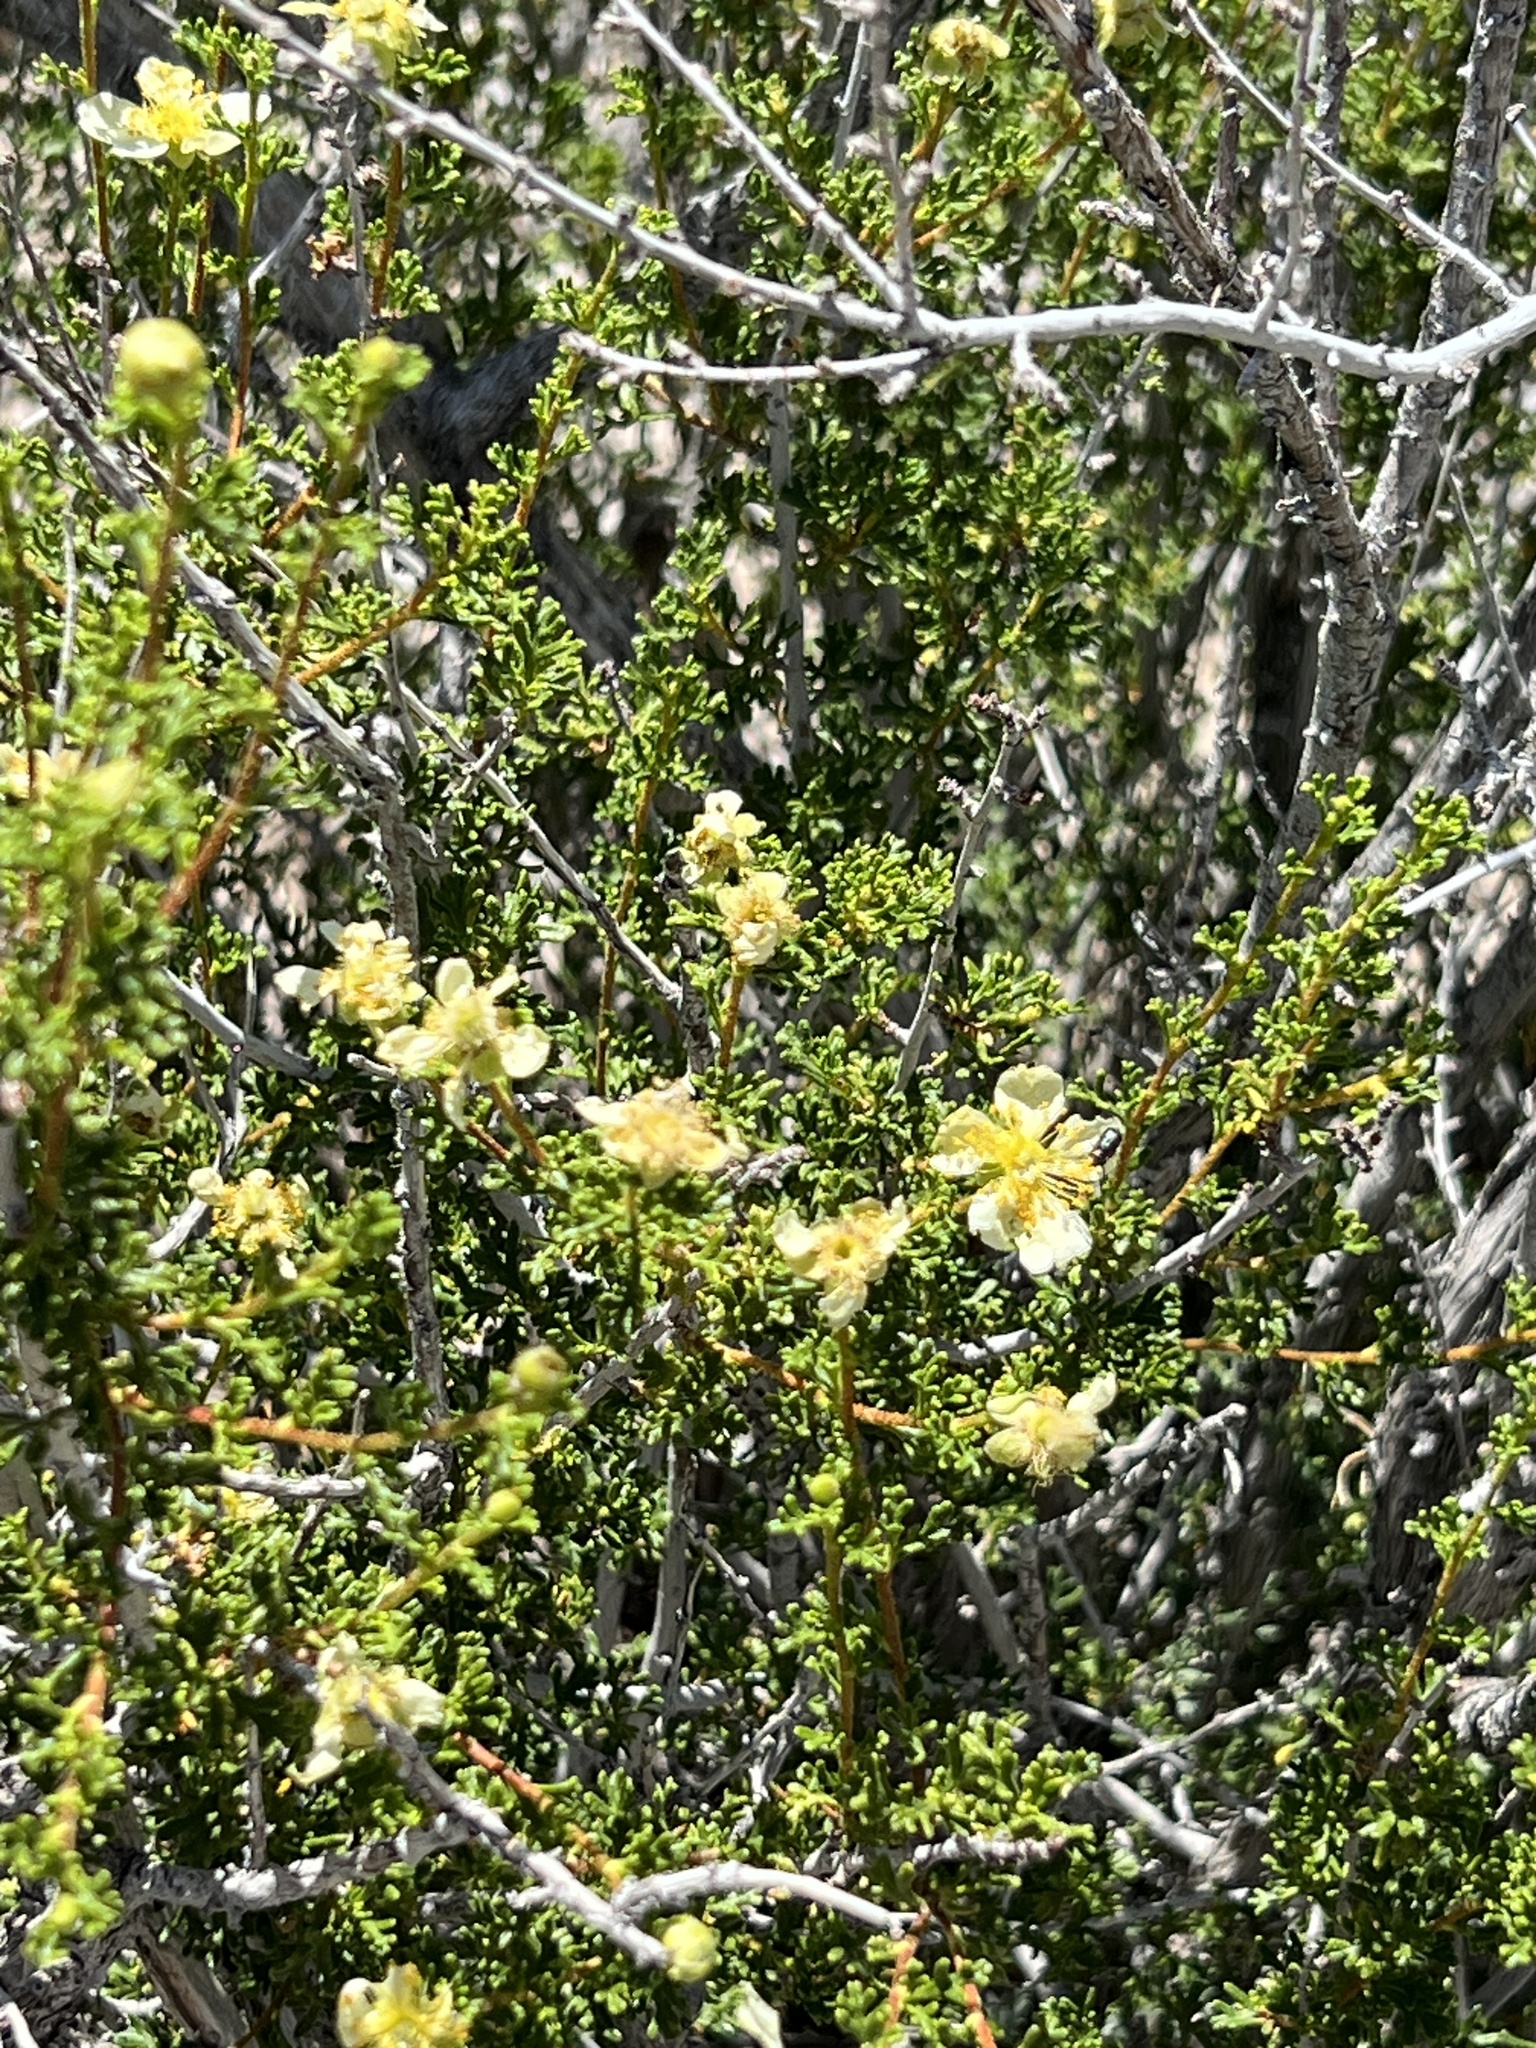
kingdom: Plantae
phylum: Tracheophyta
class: Magnoliopsida
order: Rosales
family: Rosaceae
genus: Purshia
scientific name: Purshia stansburiana
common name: Stansbury's cliffrose
